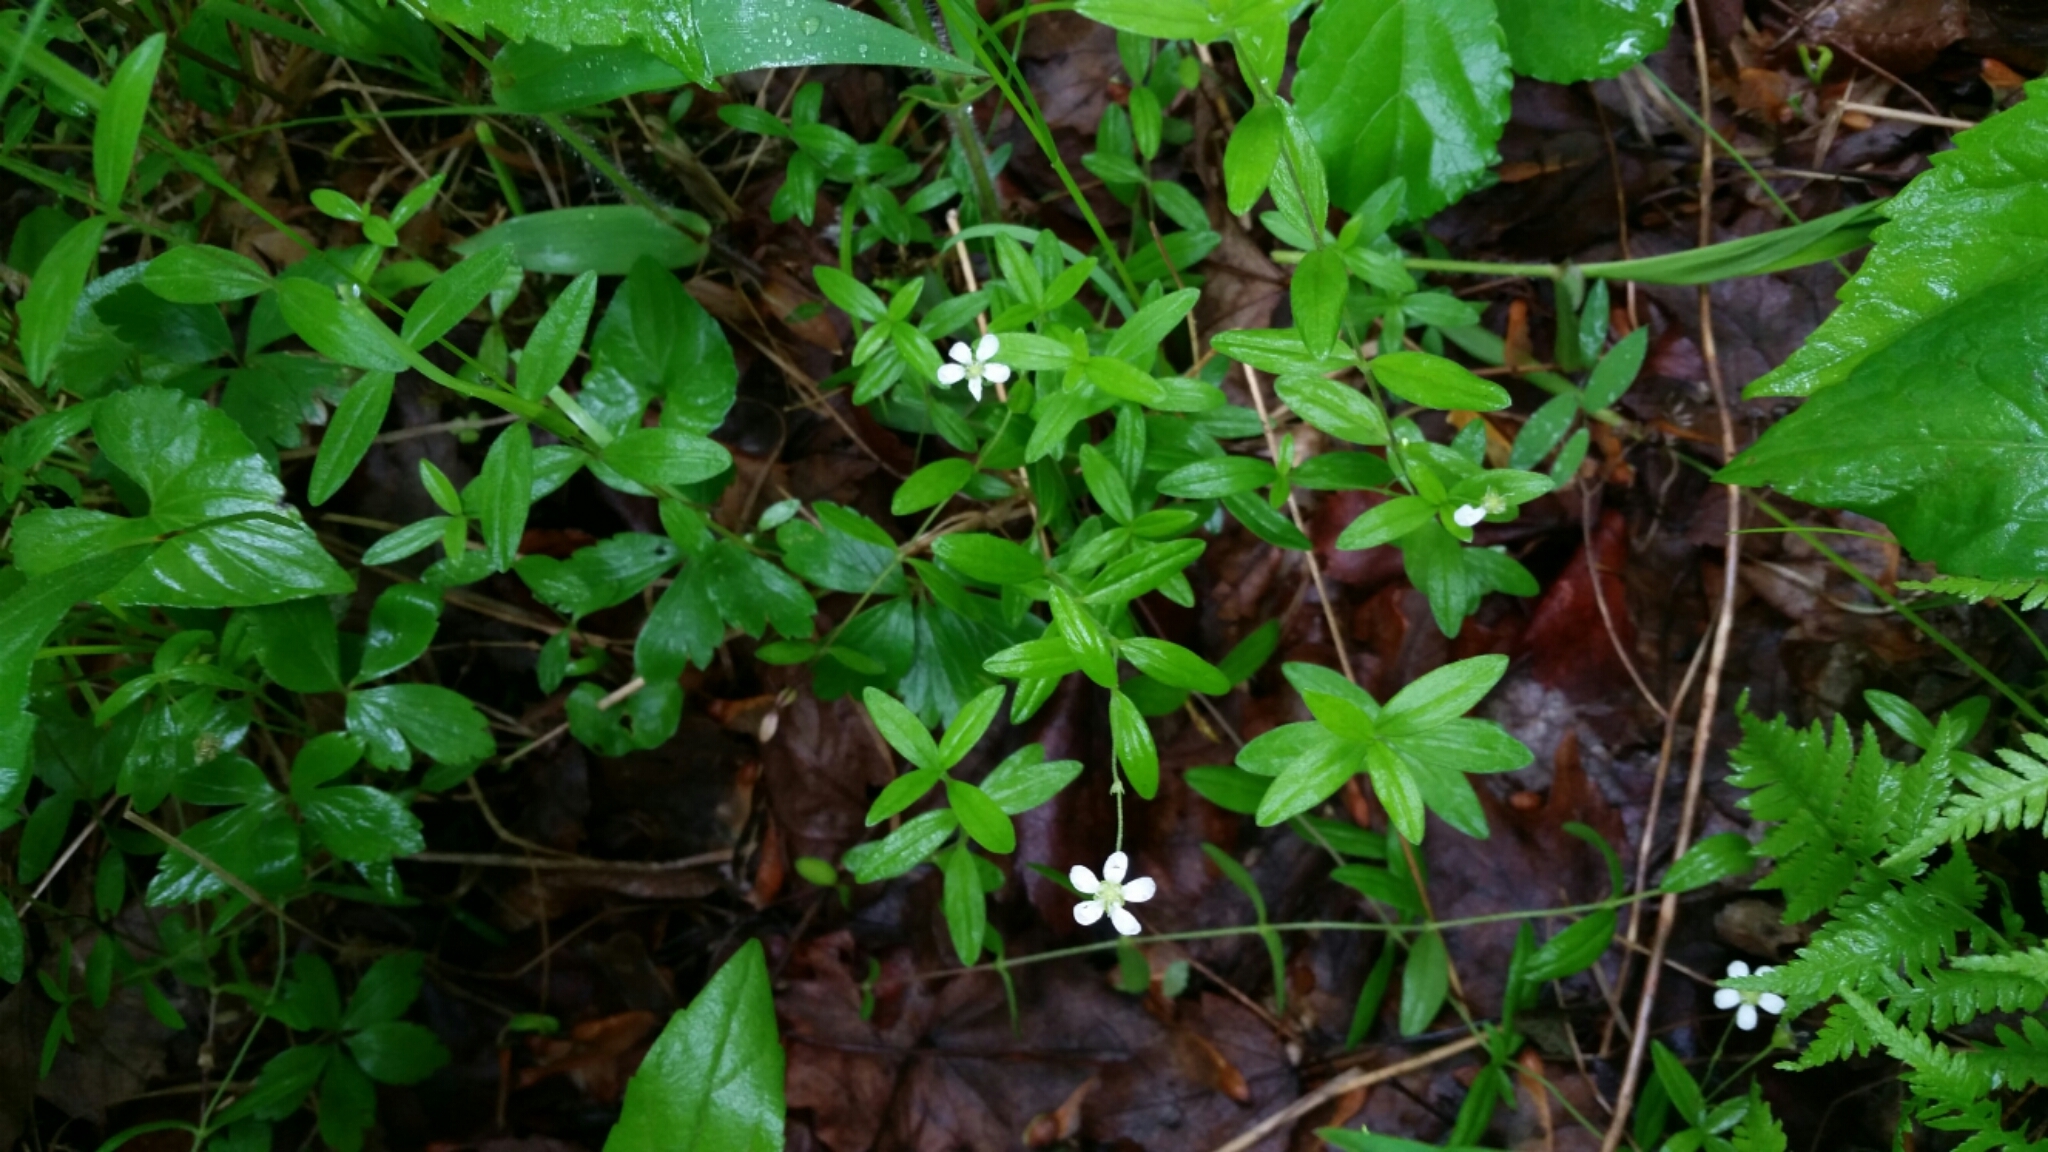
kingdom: Plantae
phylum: Tracheophyta
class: Magnoliopsida
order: Caryophyllales
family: Caryophyllaceae
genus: Moehringia
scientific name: Moehringia lateriflora
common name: Blunt-leaved sandwort
